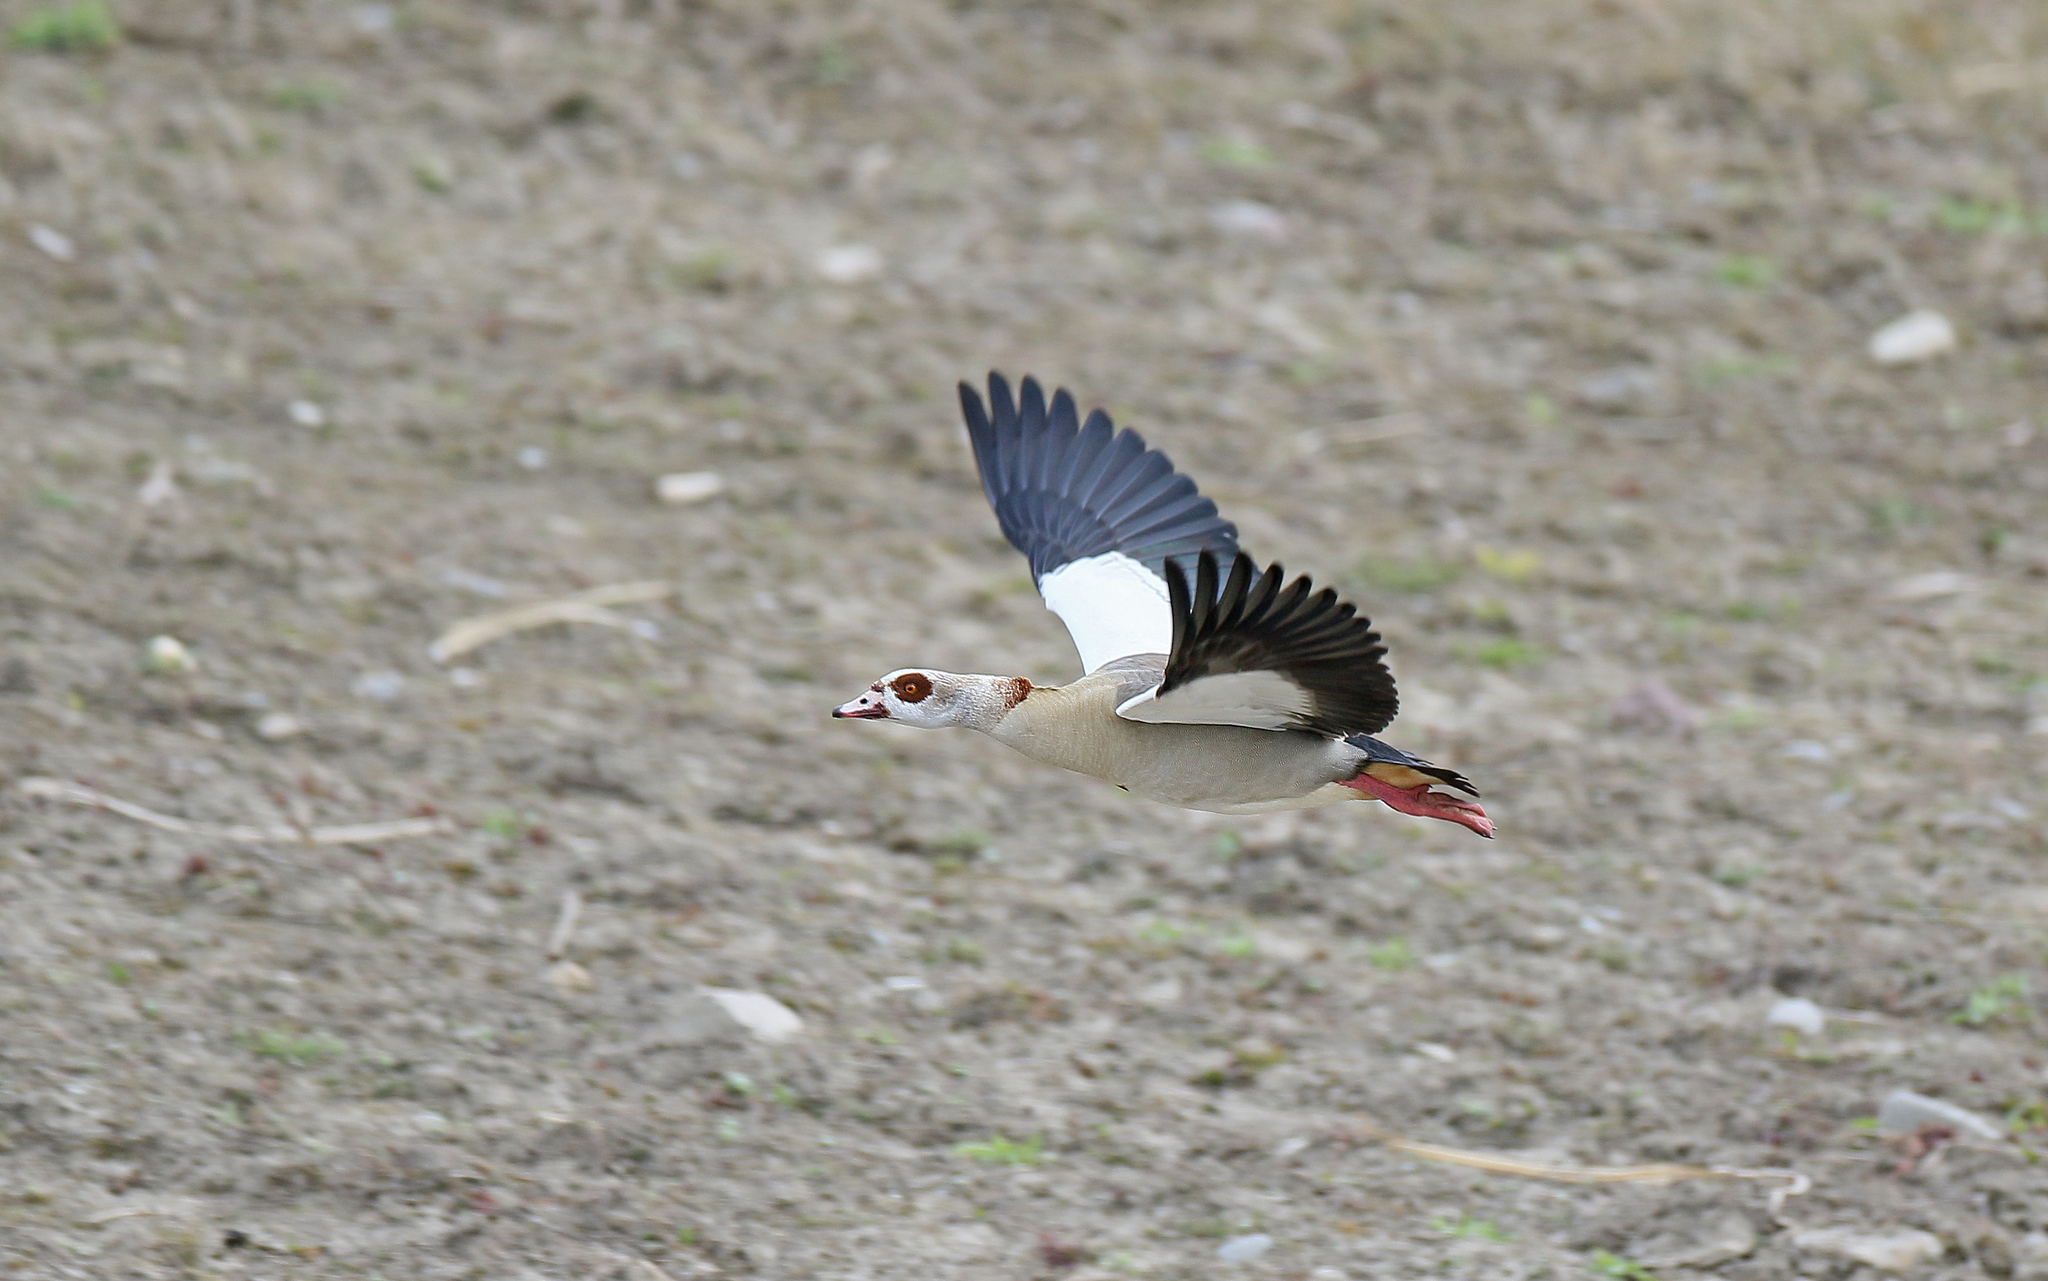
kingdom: Animalia
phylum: Chordata
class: Aves
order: Anseriformes
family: Anatidae
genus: Alopochen
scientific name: Alopochen aegyptiaca
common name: Egyptian goose
